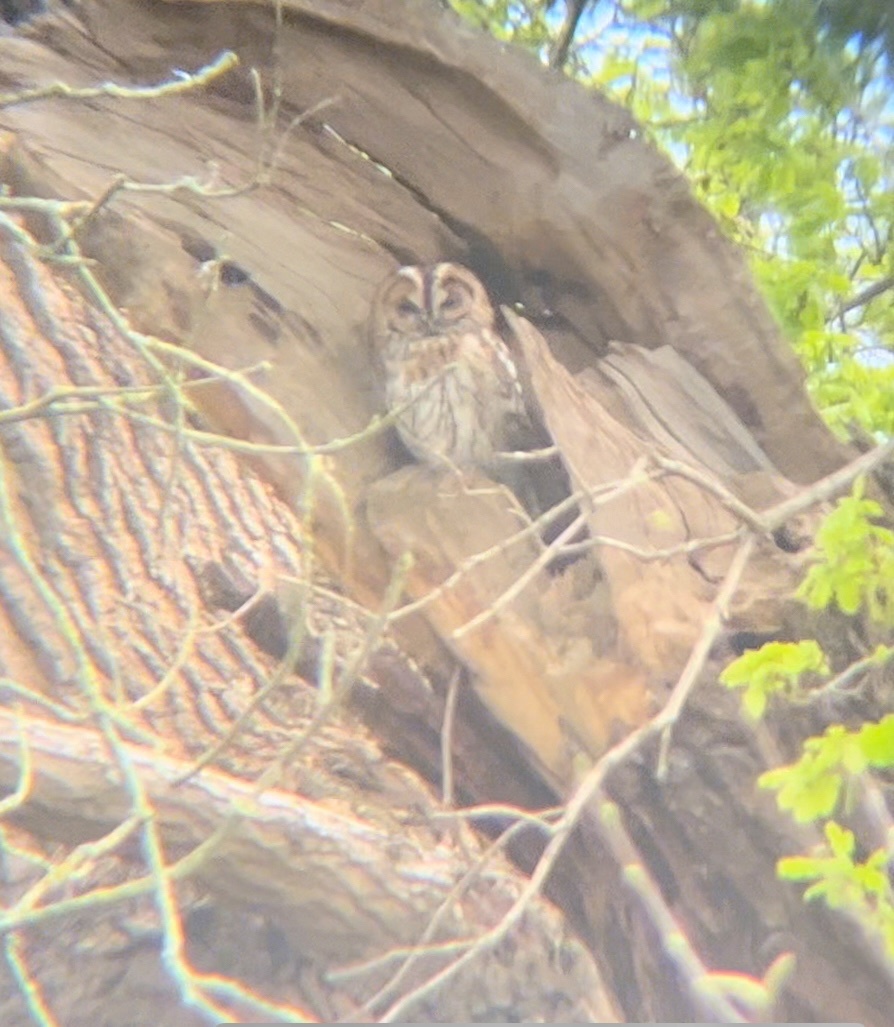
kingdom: Animalia
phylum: Chordata
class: Aves
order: Strigiformes
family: Strigidae
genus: Strix
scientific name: Strix aluco
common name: Tawny owl
